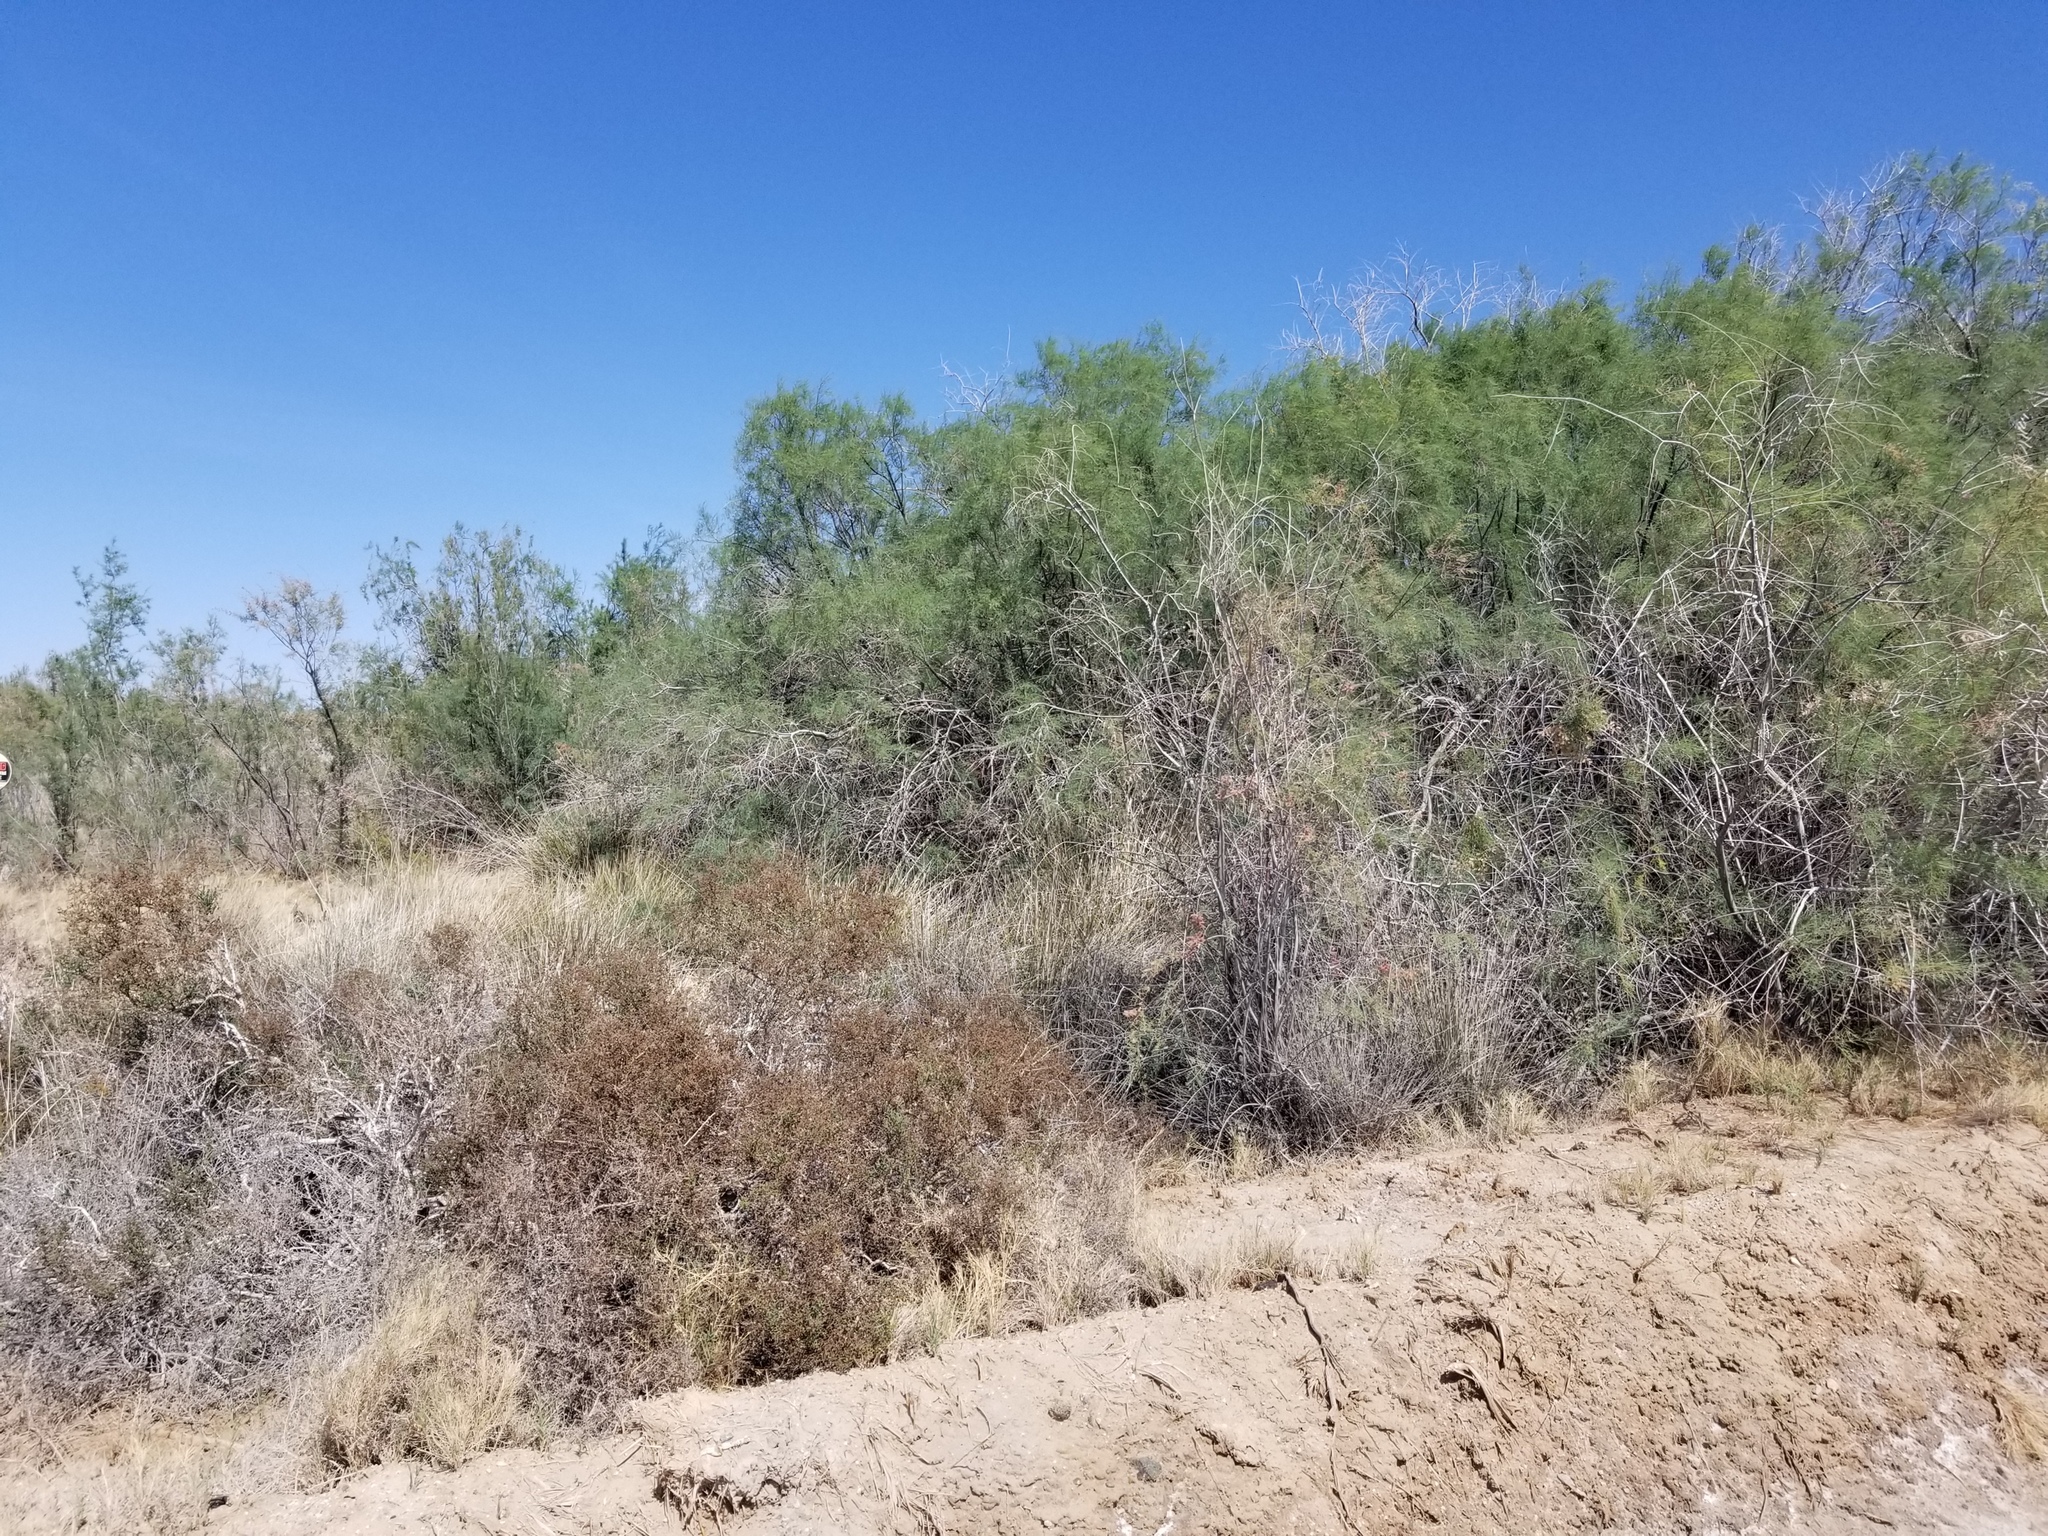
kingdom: Plantae
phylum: Tracheophyta
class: Magnoliopsida
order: Caryophyllales
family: Tamaricaceae
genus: Tamarix
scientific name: Tamarix ramosissima
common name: Pink tamarisk
